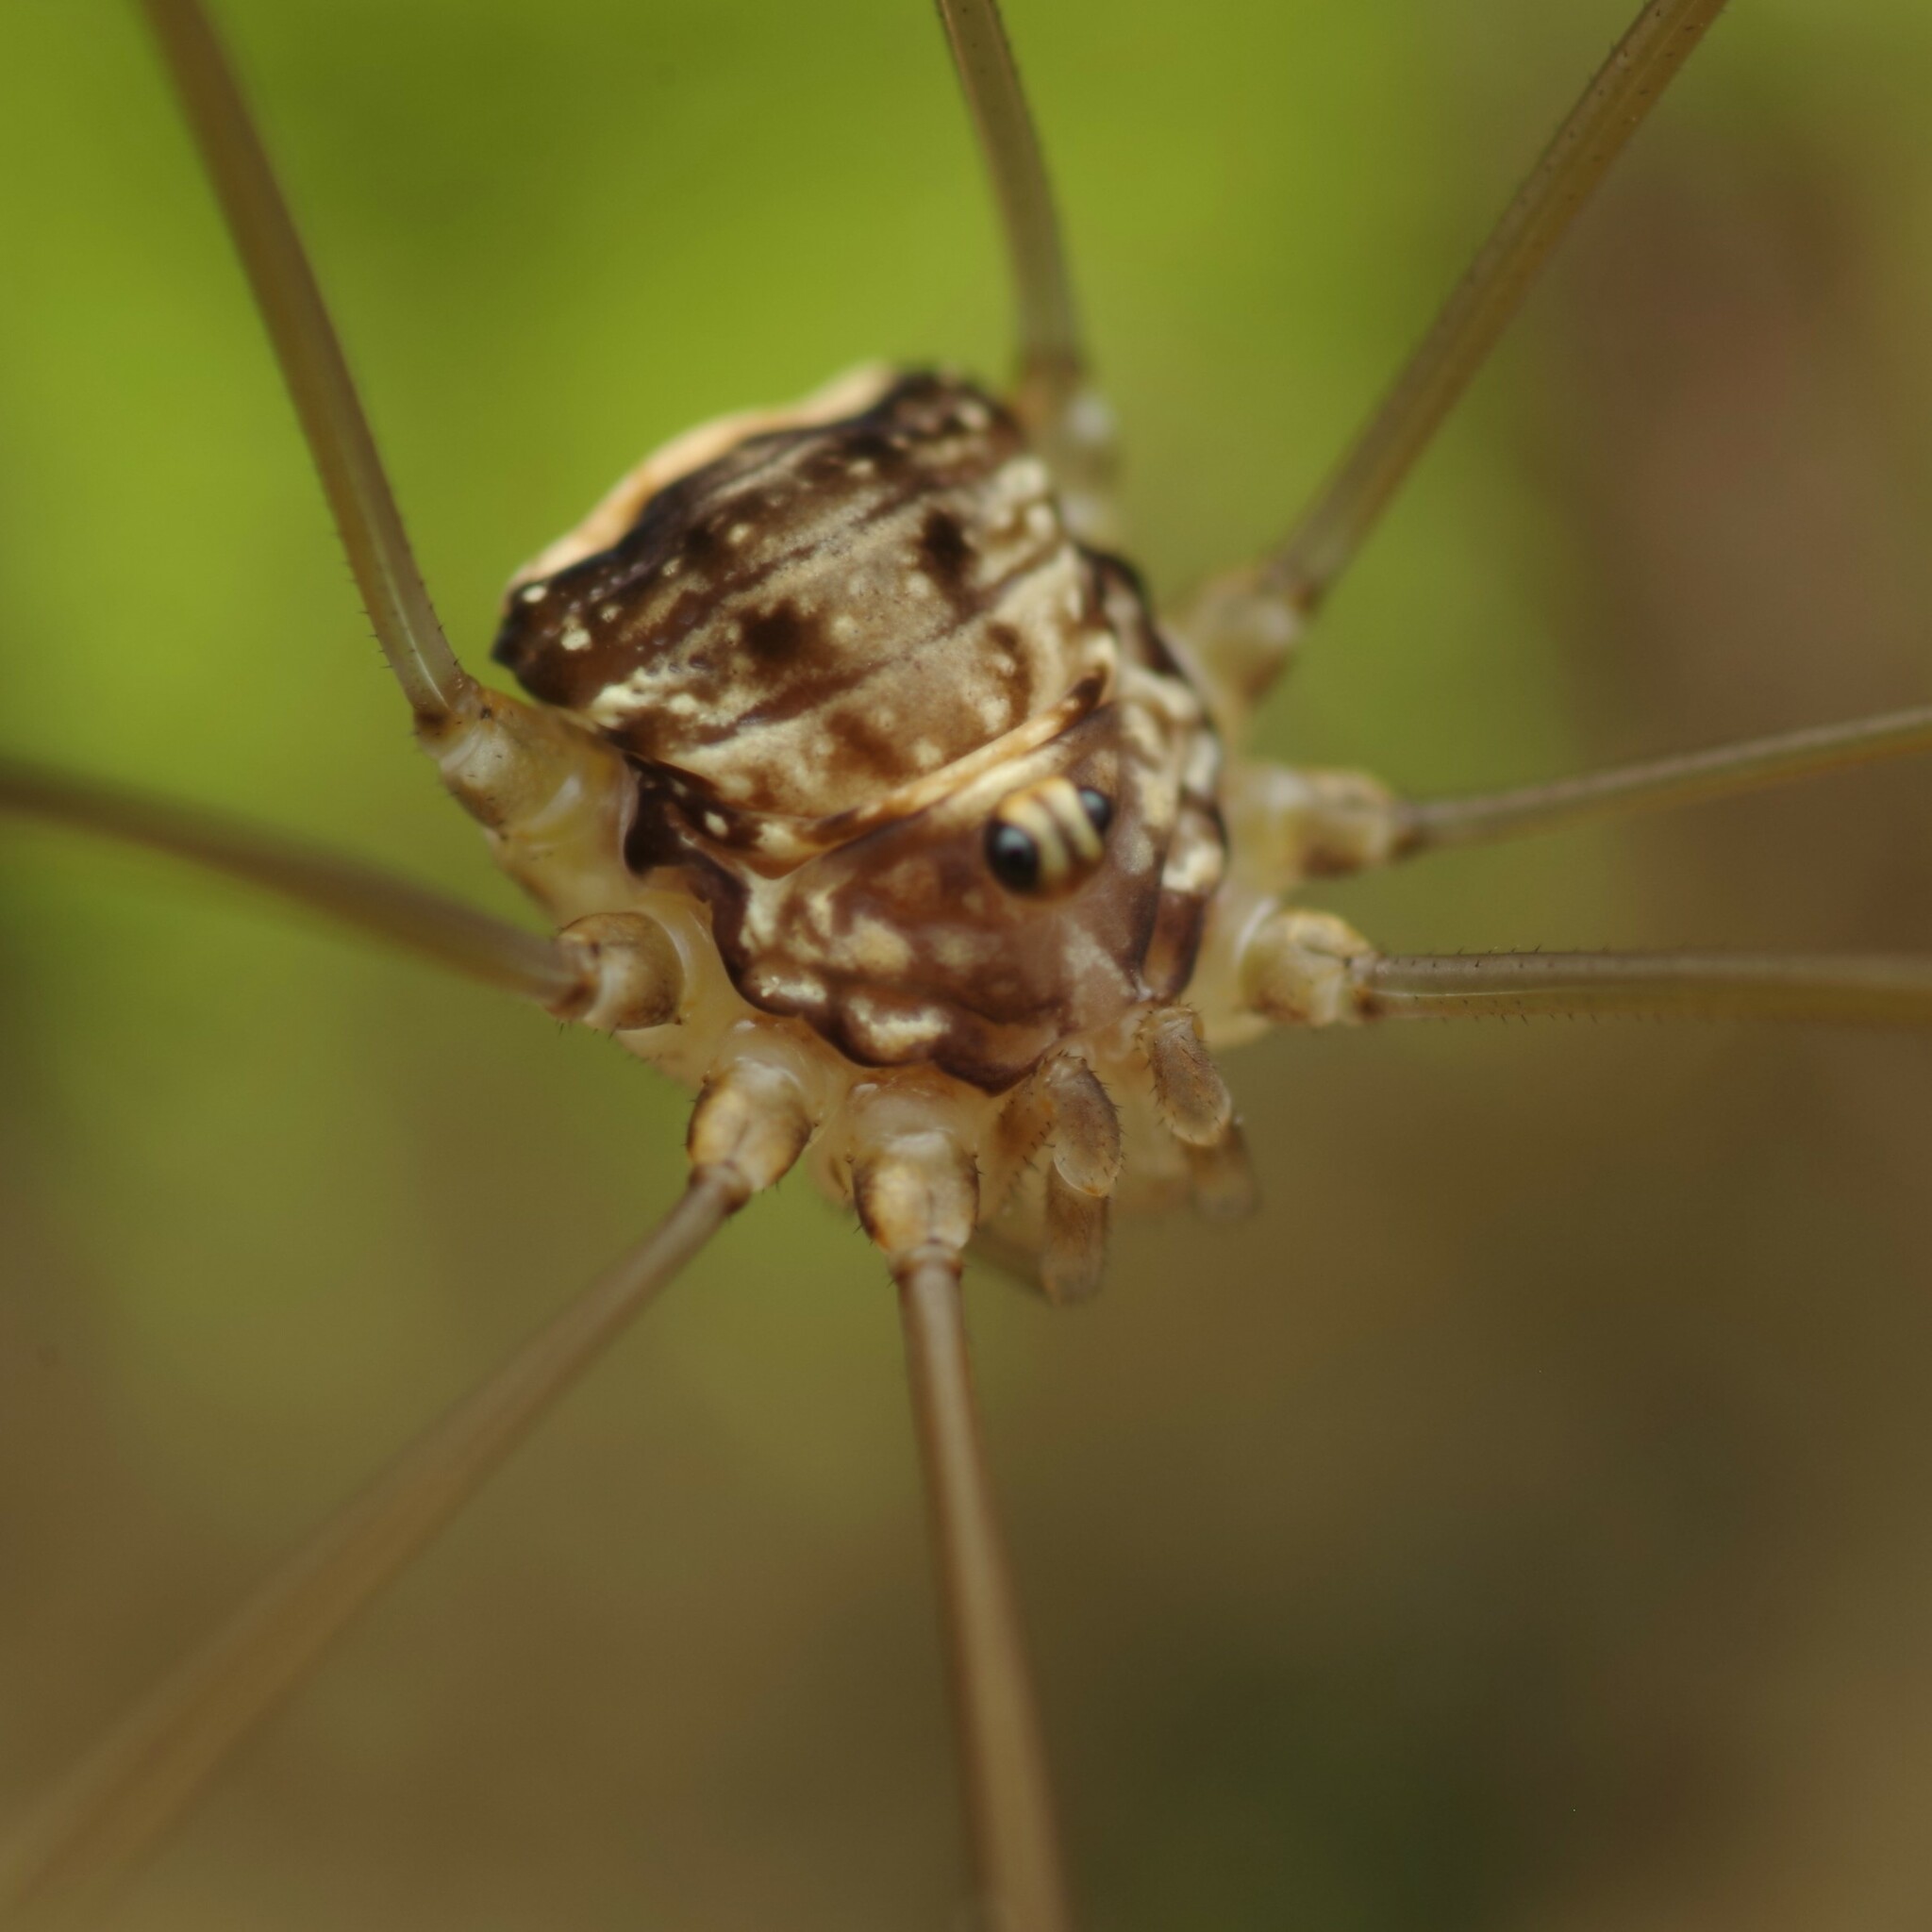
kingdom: Animalia
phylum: Arthropoda
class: Arachnida
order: Opiliones
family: Sclerosomatidae
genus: Leiobunum
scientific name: Leiobunum blackwalli
